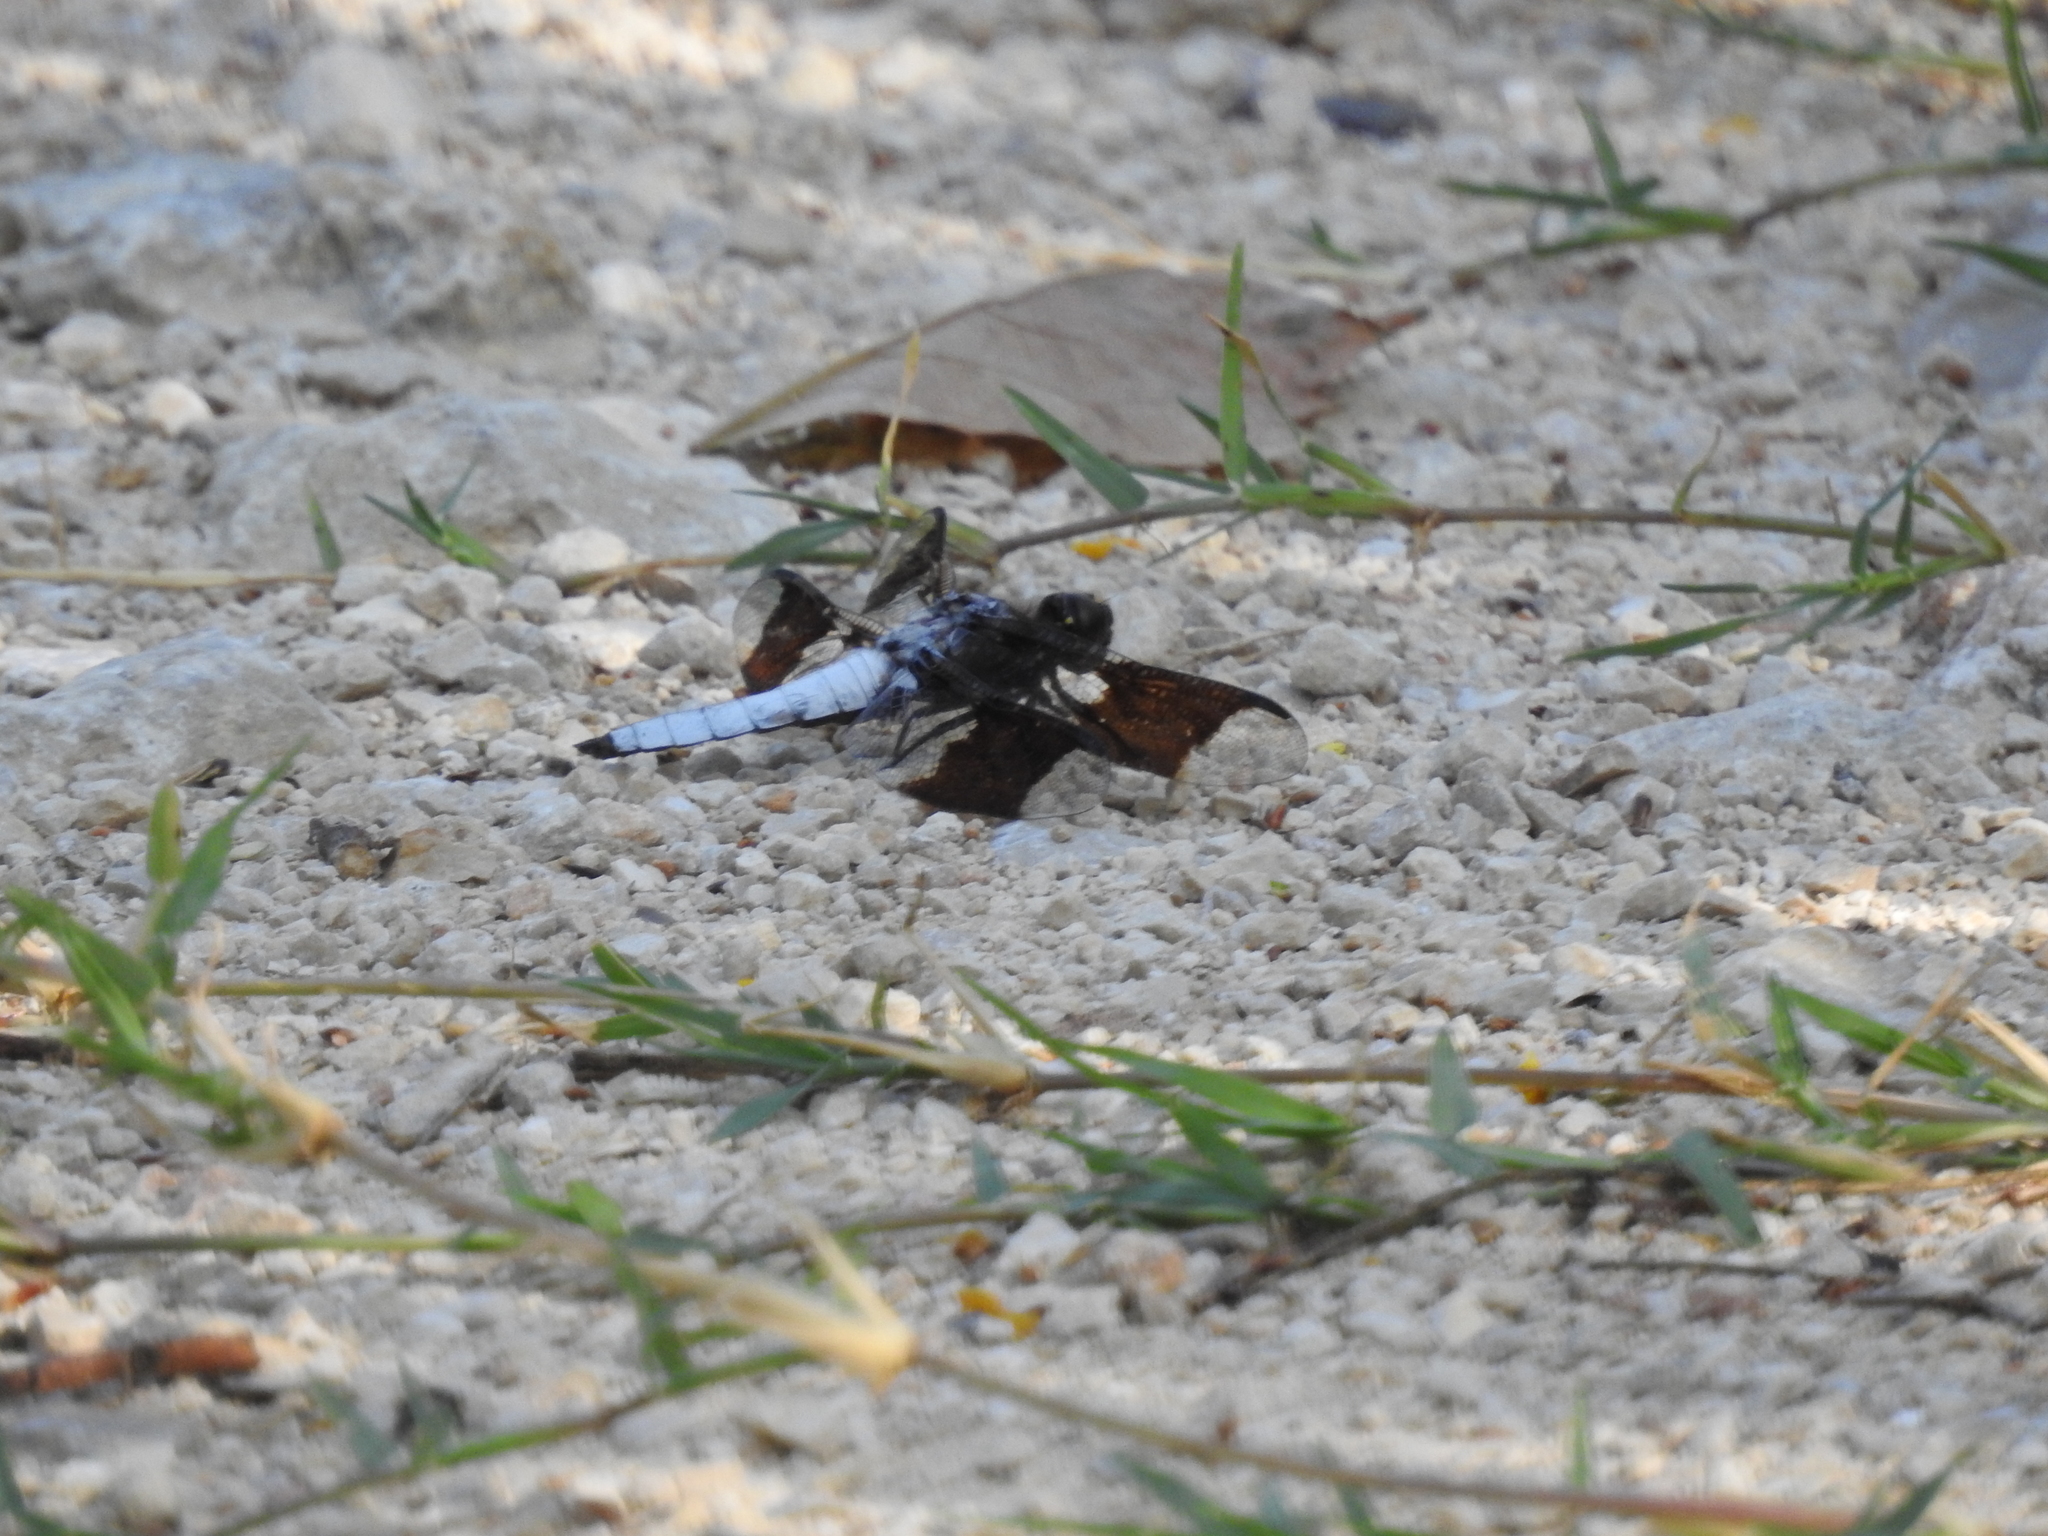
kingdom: Animalia
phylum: Arthropoda
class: Insecta
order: Odonata
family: Libellulidae
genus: Plathemis
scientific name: Plathemis lydia
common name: Common whitetail
